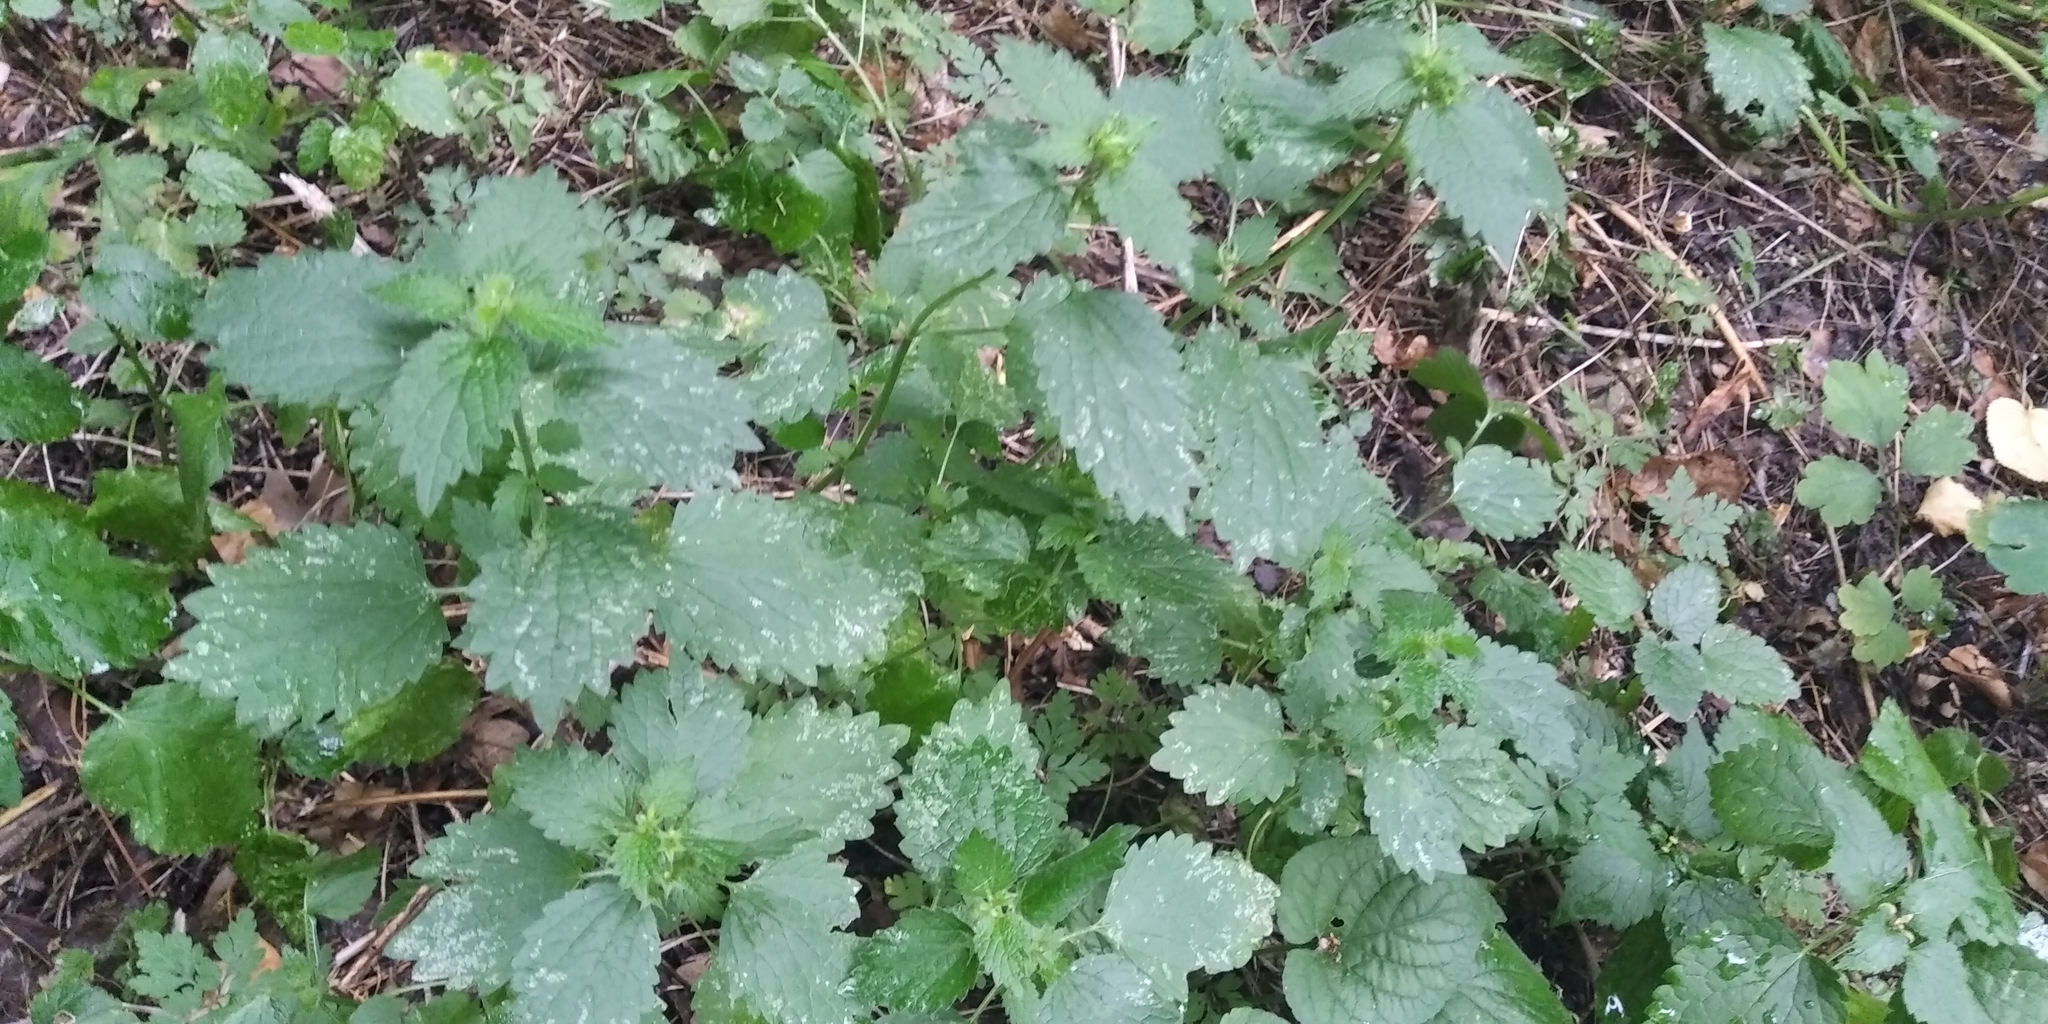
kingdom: Plantae
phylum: Tracheophyta
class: Magnoliopsida
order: Rosales
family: Urticaceae
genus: Urtica
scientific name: Urtica dioica
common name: Common nettle
